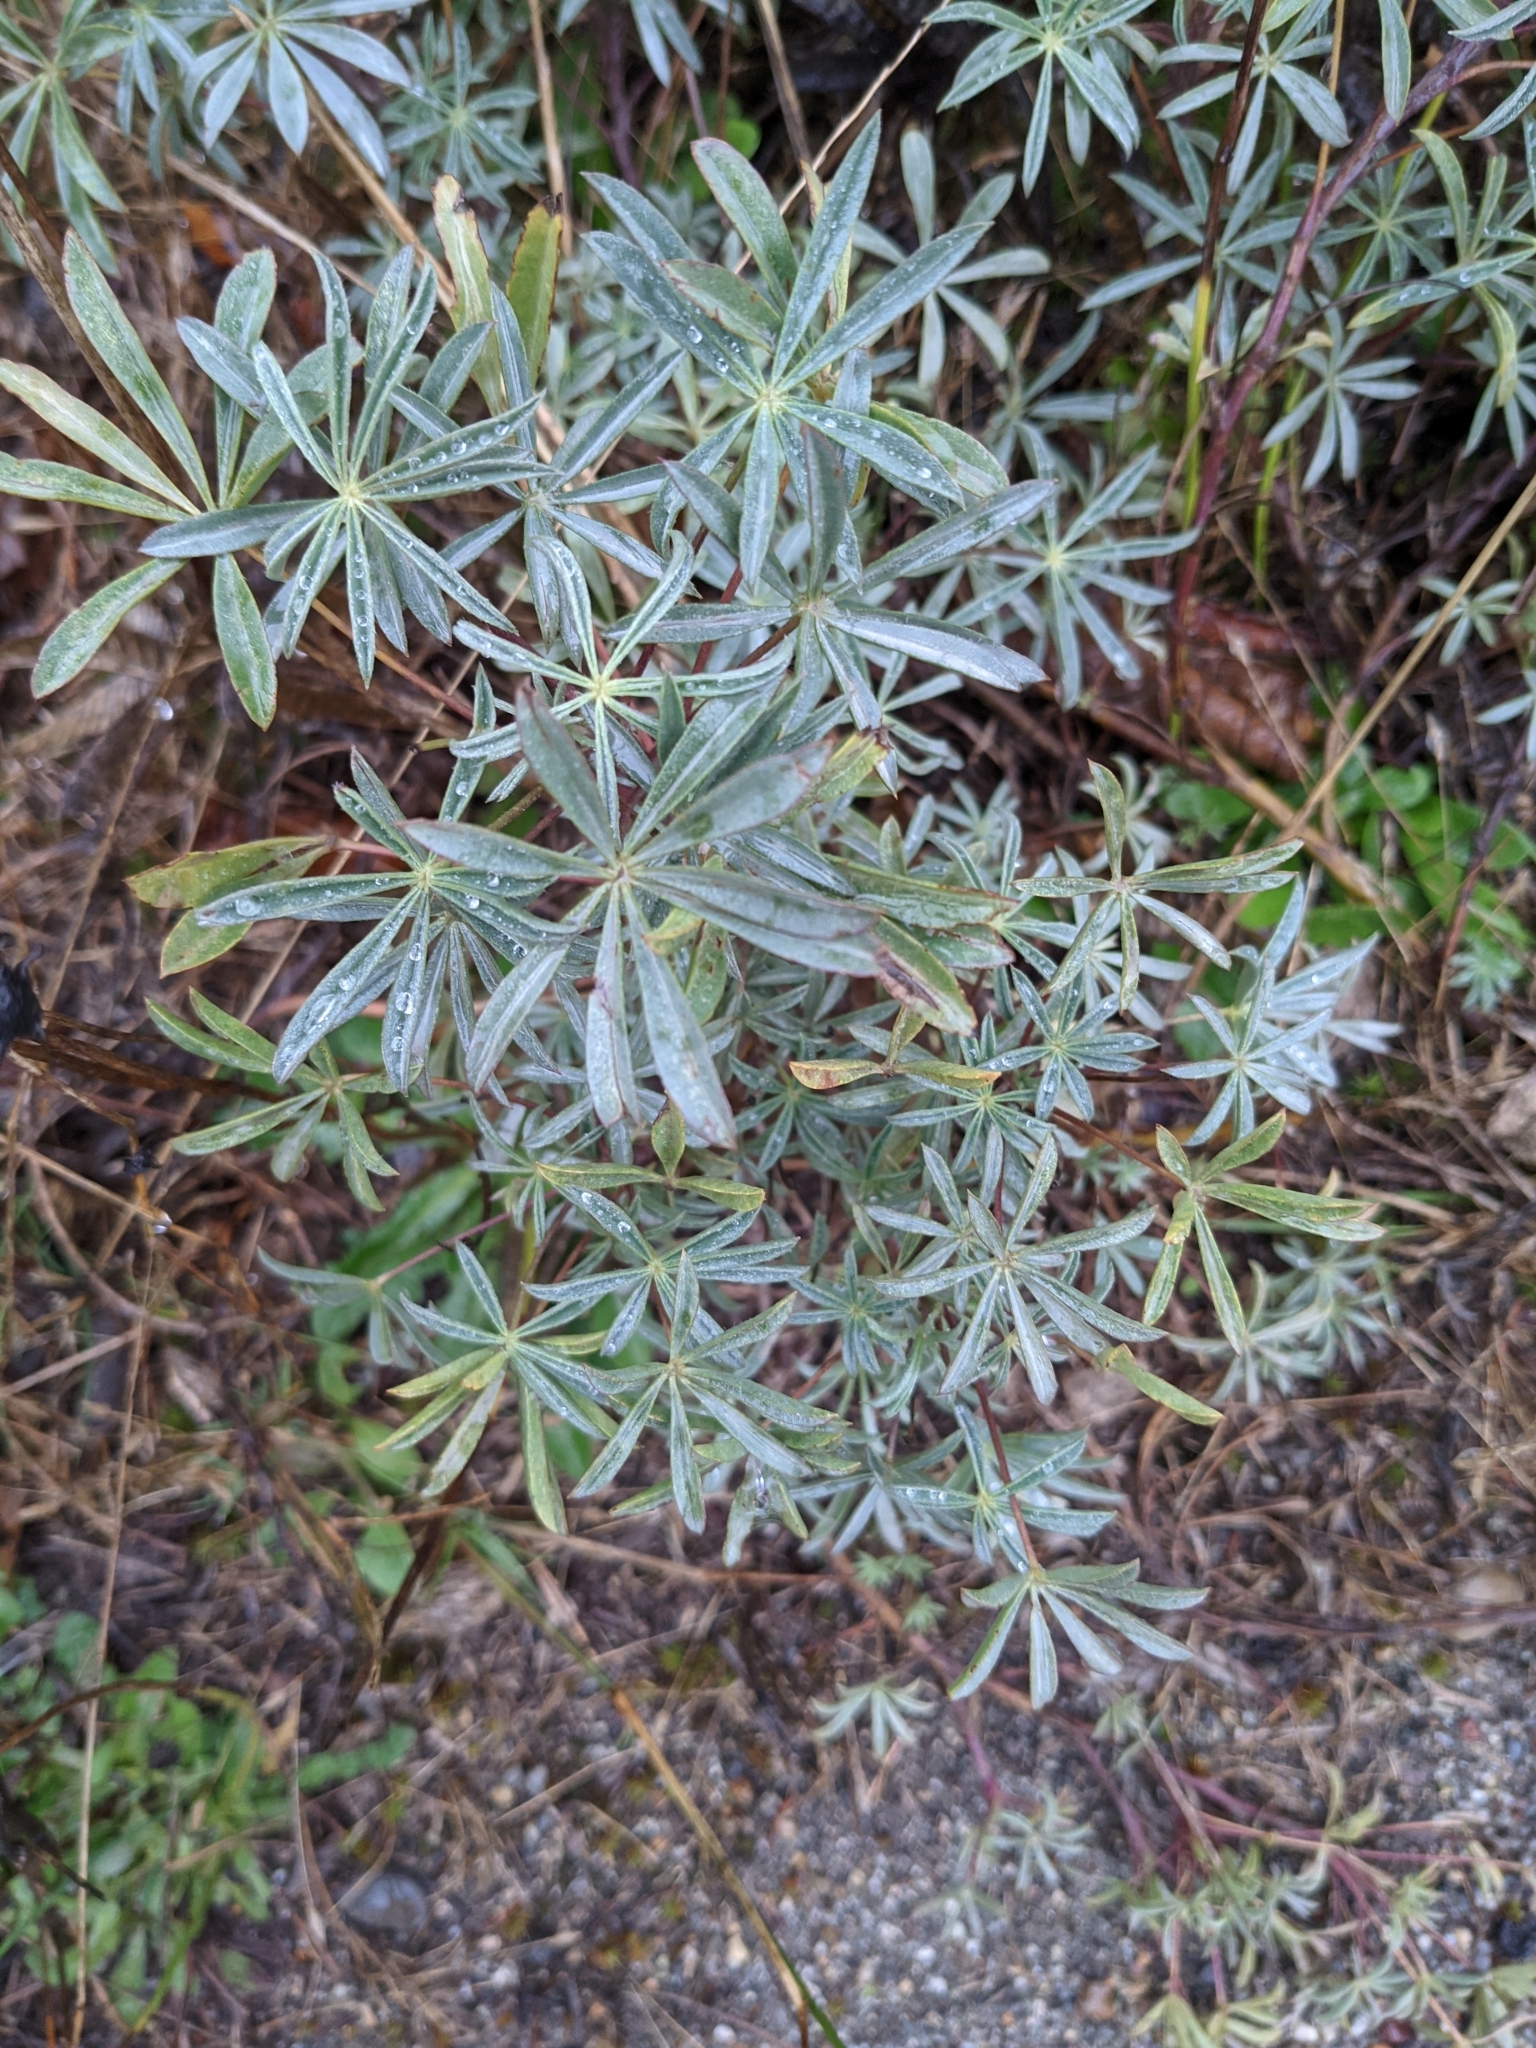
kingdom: Plantae
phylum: Tracheophyta
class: Magnoliopsida
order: Fabales
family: Fabaceae
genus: Lupinus
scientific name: Lupinus littoralis
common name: Seashore lupine
